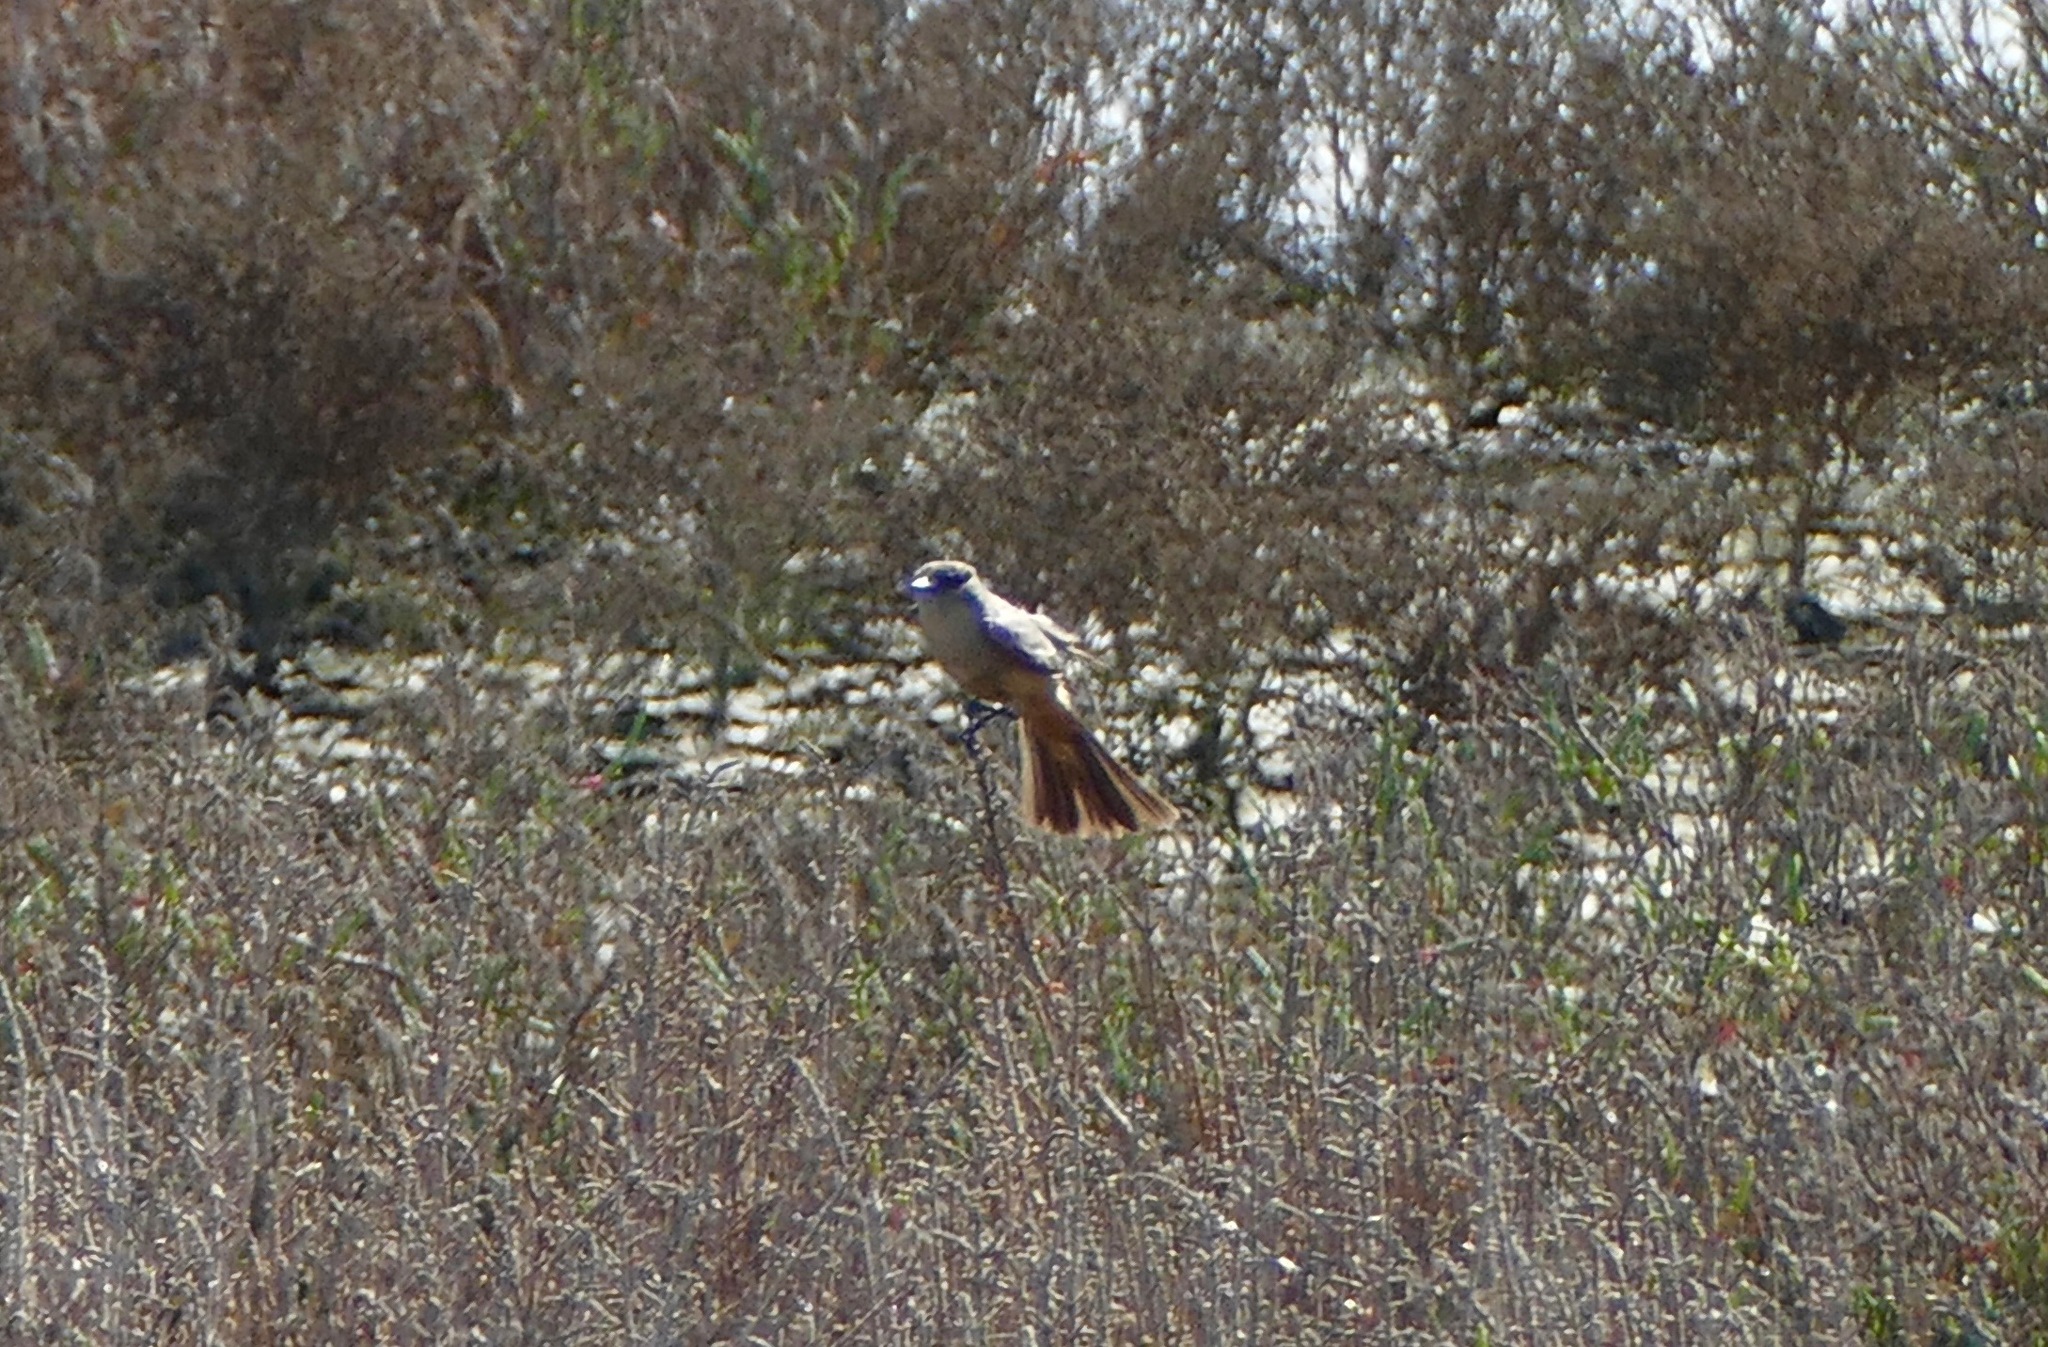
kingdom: Animalia
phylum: Chordata
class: Aves
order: Passeriformes
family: Tyrannidae
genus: Sayornis
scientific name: Sayornis saya
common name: Say's phoebe
